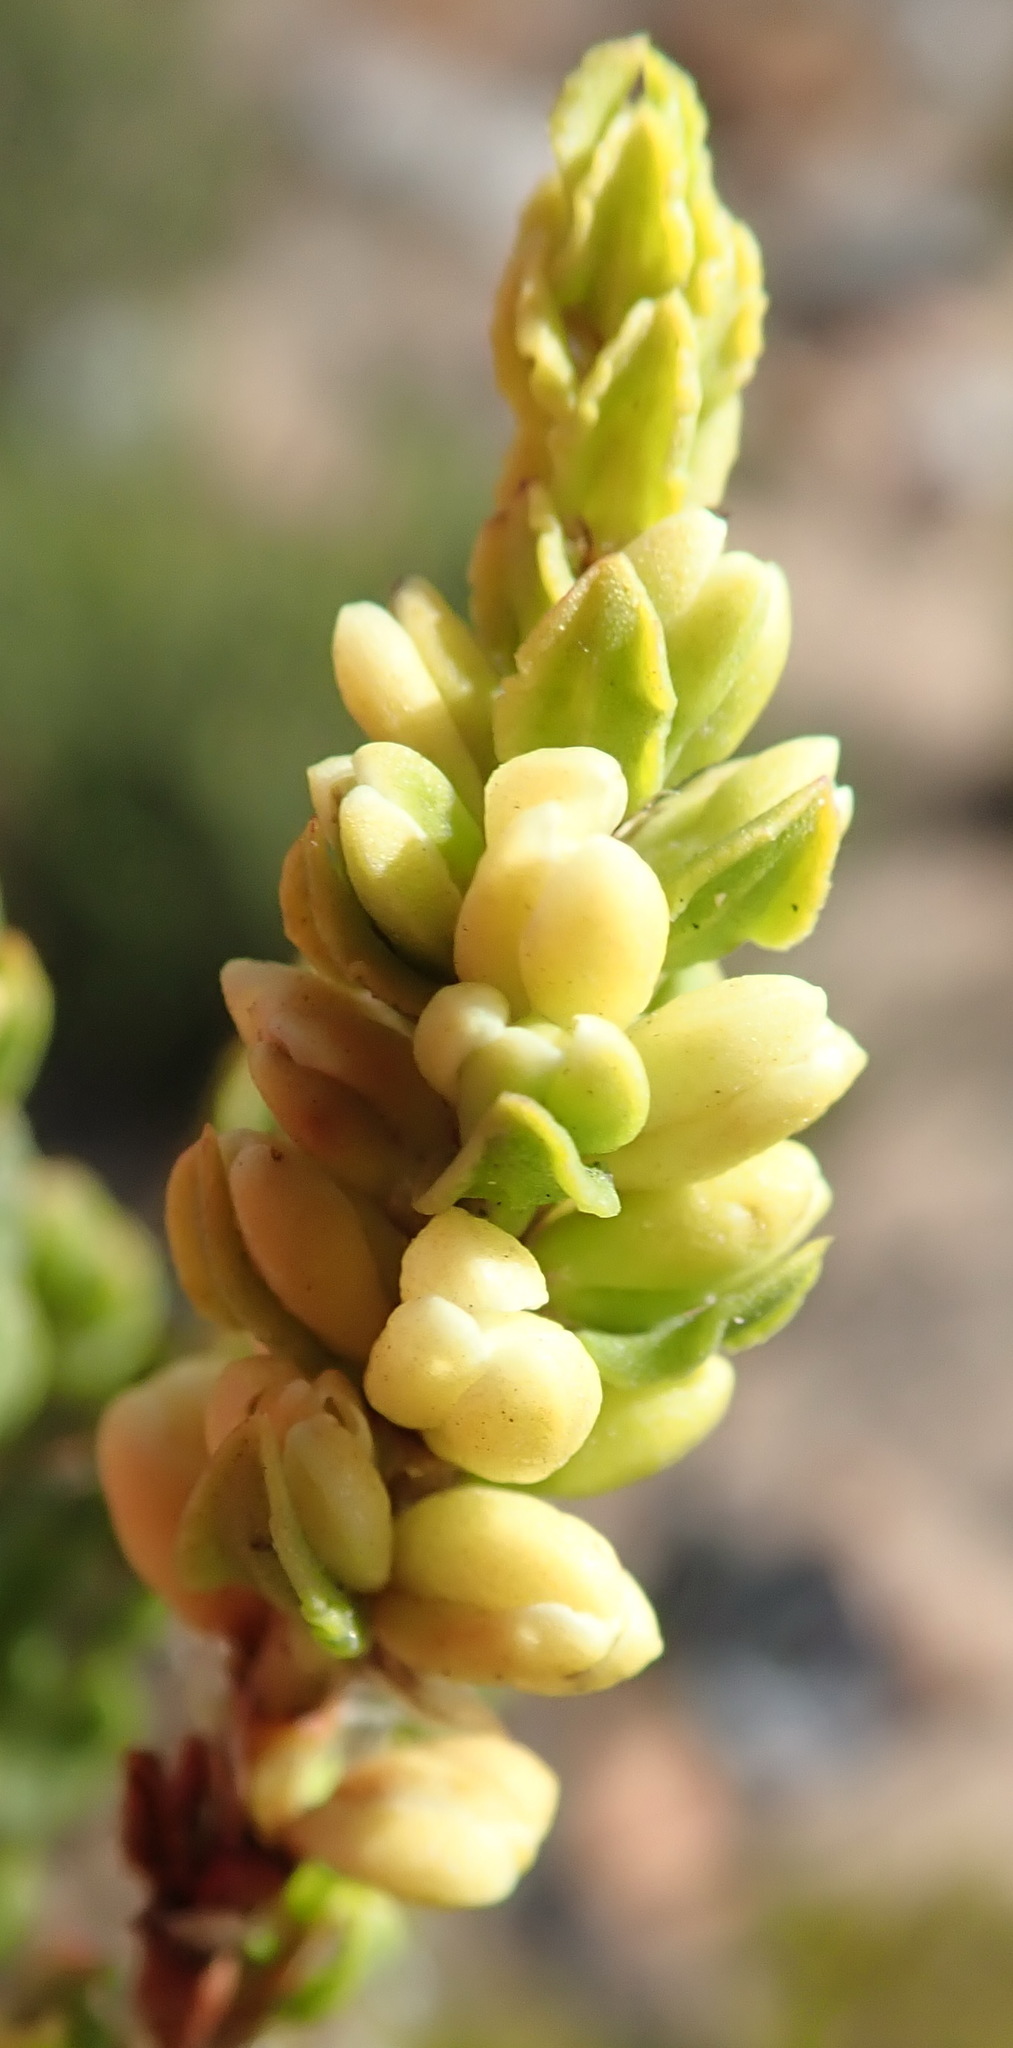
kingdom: Plantae
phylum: Tracheophyta
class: Magnoliopsida
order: Caryophyllales
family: Polygonaceae
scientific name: Polygonaceae
